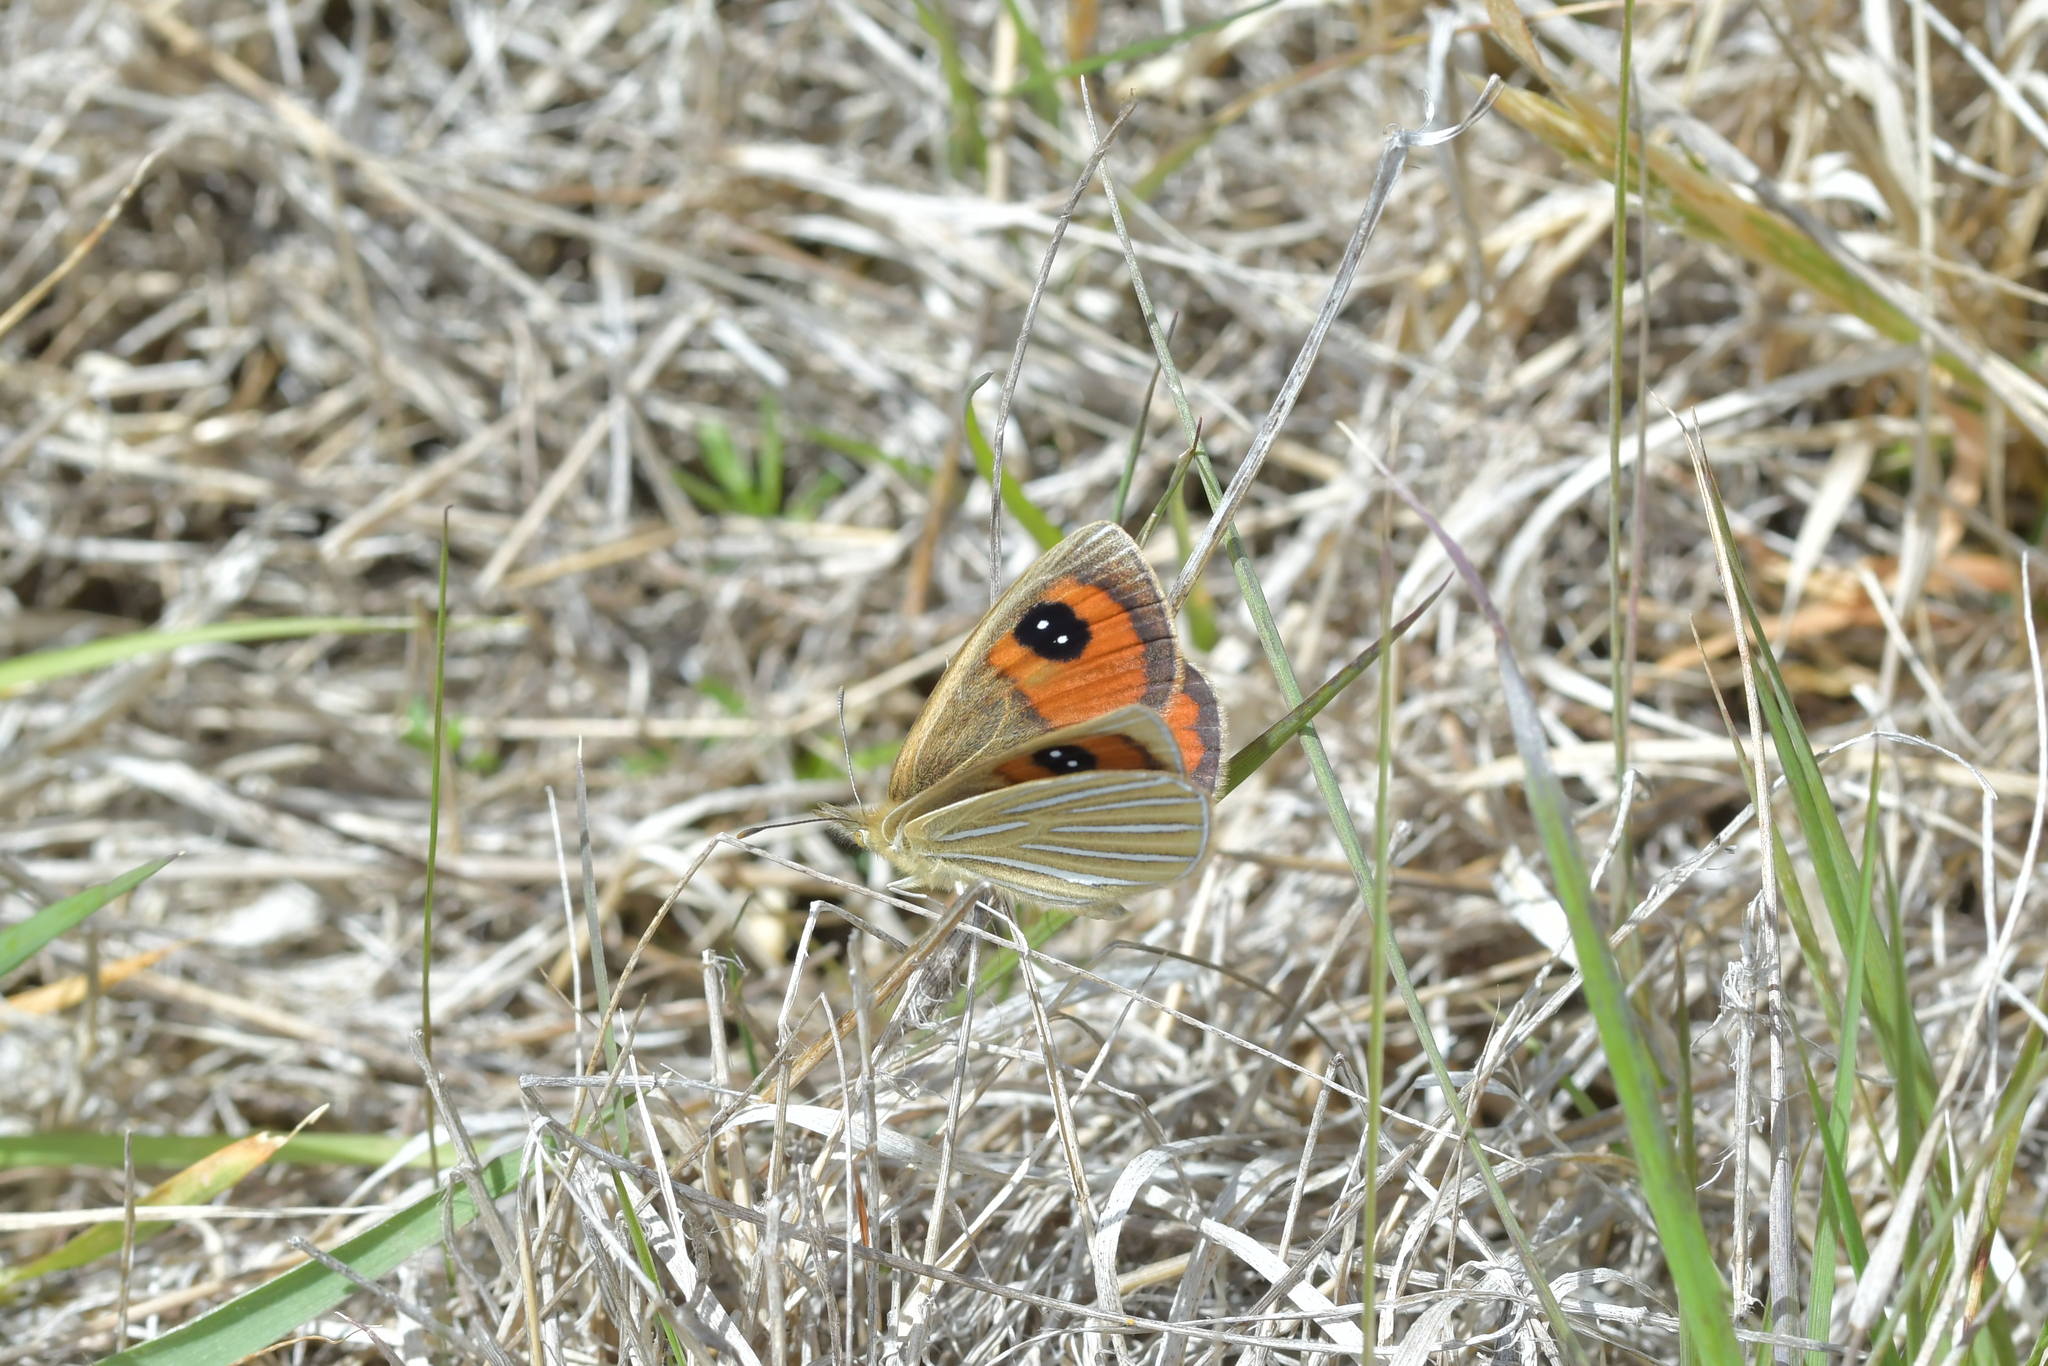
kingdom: Animalia
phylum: Arthropoda
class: Insecta
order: Lepidoptera
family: Nymphalidae
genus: Argyrophenga
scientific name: Argyrophenga antipodum
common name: Common tussock butterfly
